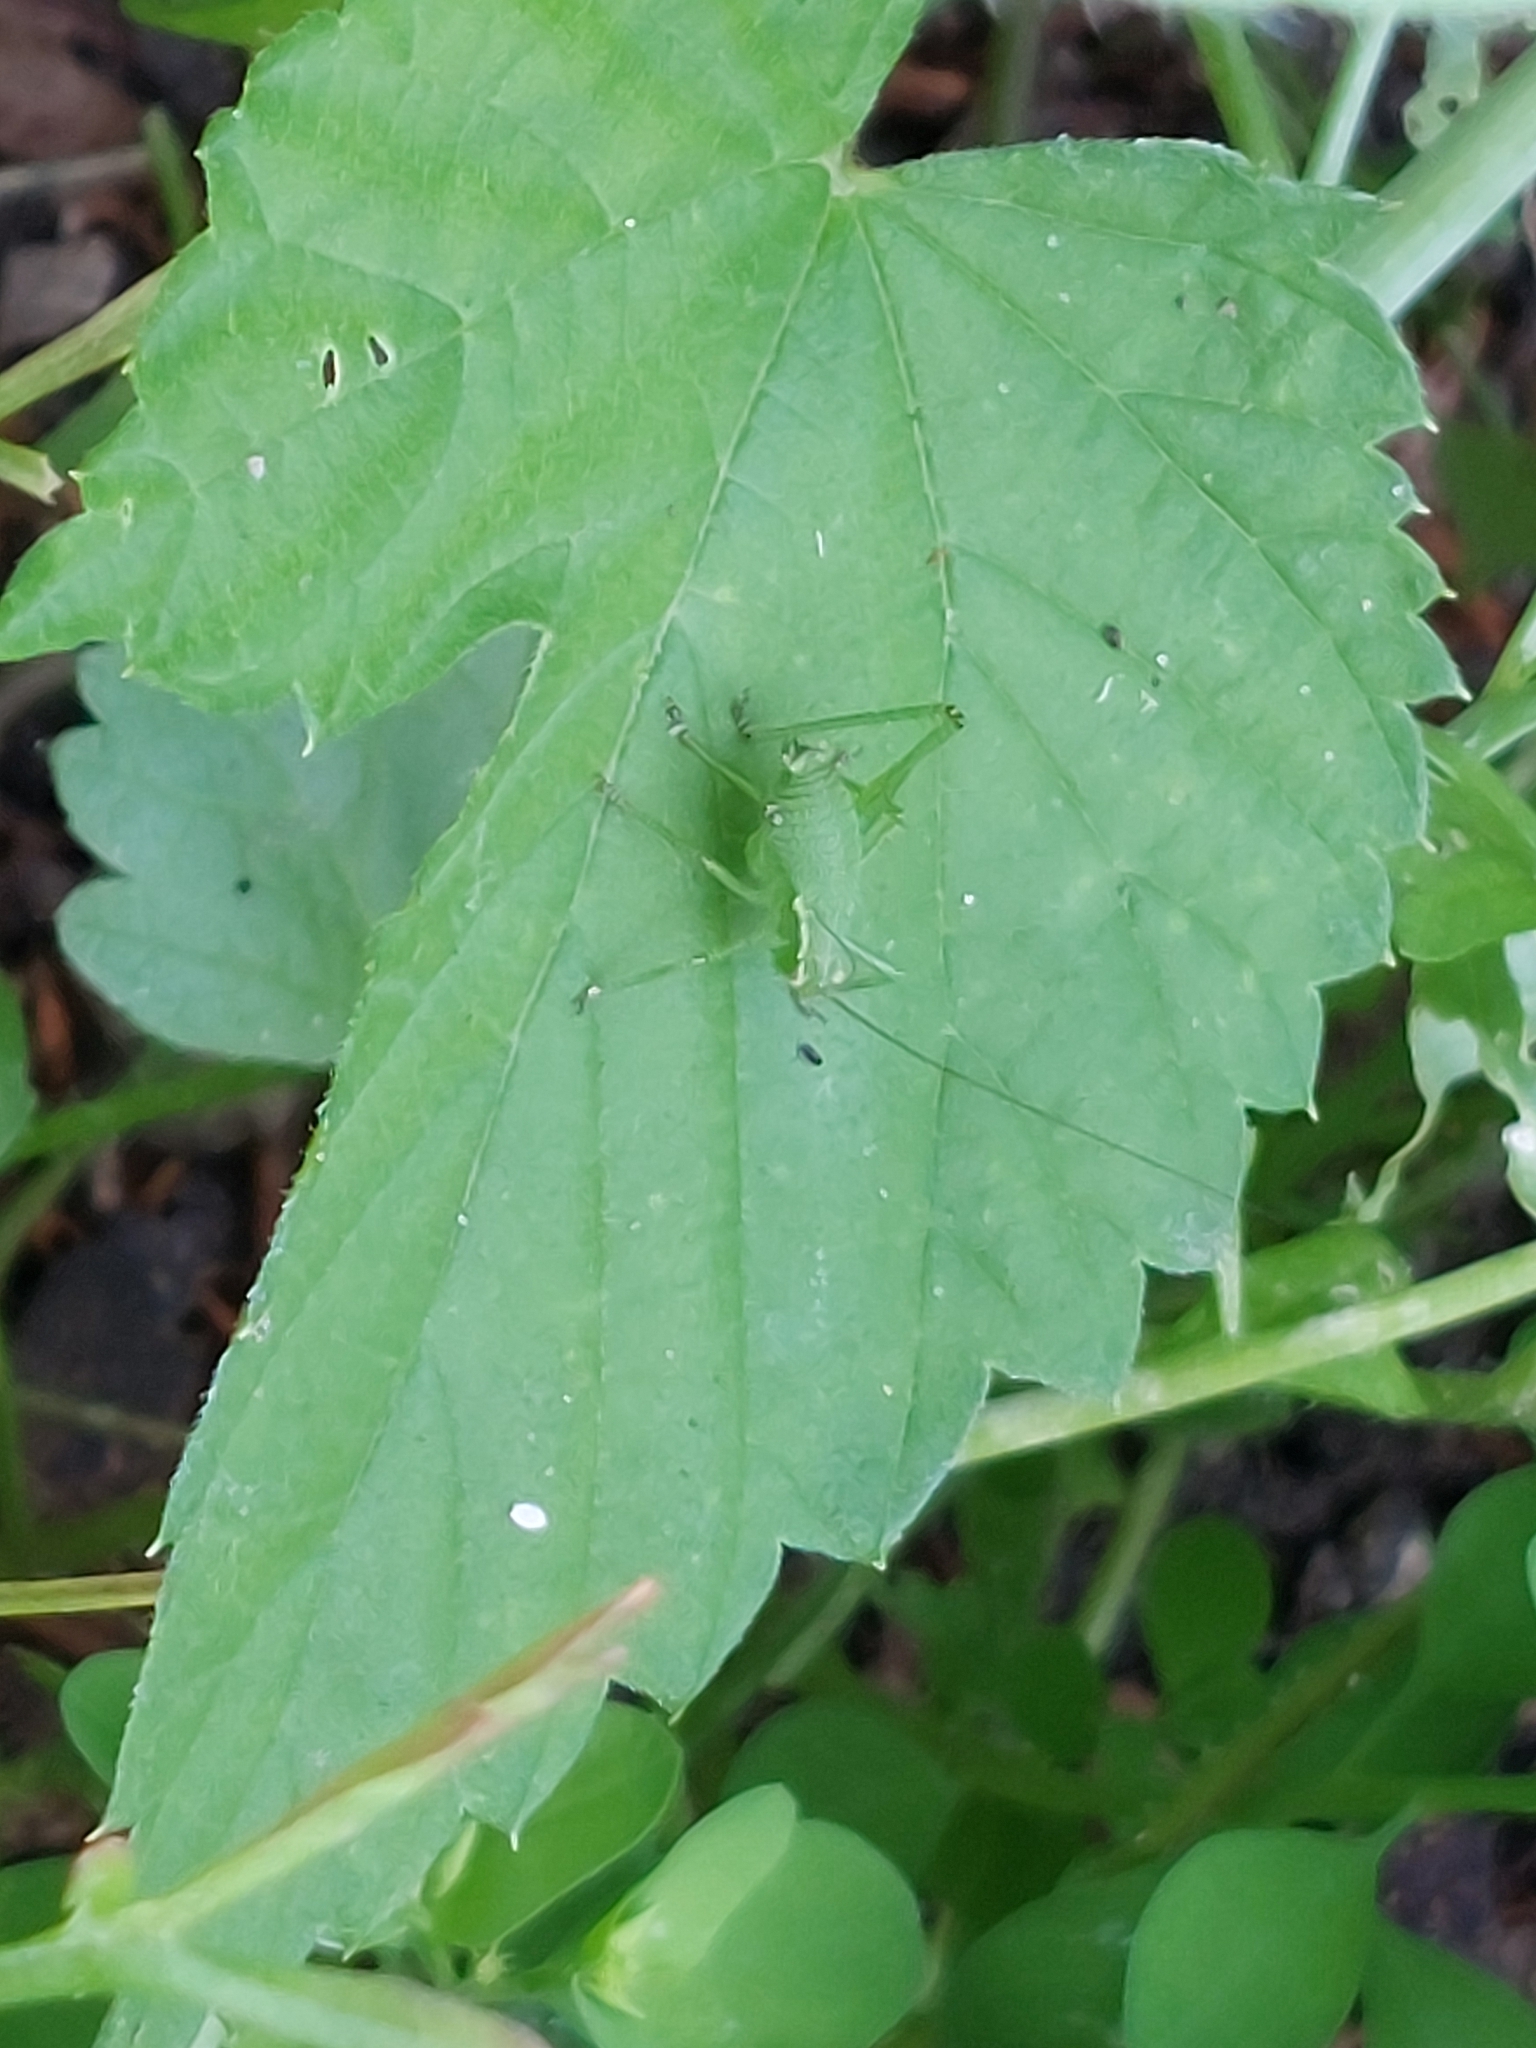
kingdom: Animalia
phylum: Arthropoda
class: Insecta
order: Orthoptera
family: Tettigoniidae
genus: Leptophyes
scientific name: Leptophyes punctatissima
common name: Speckled bush-cricket
